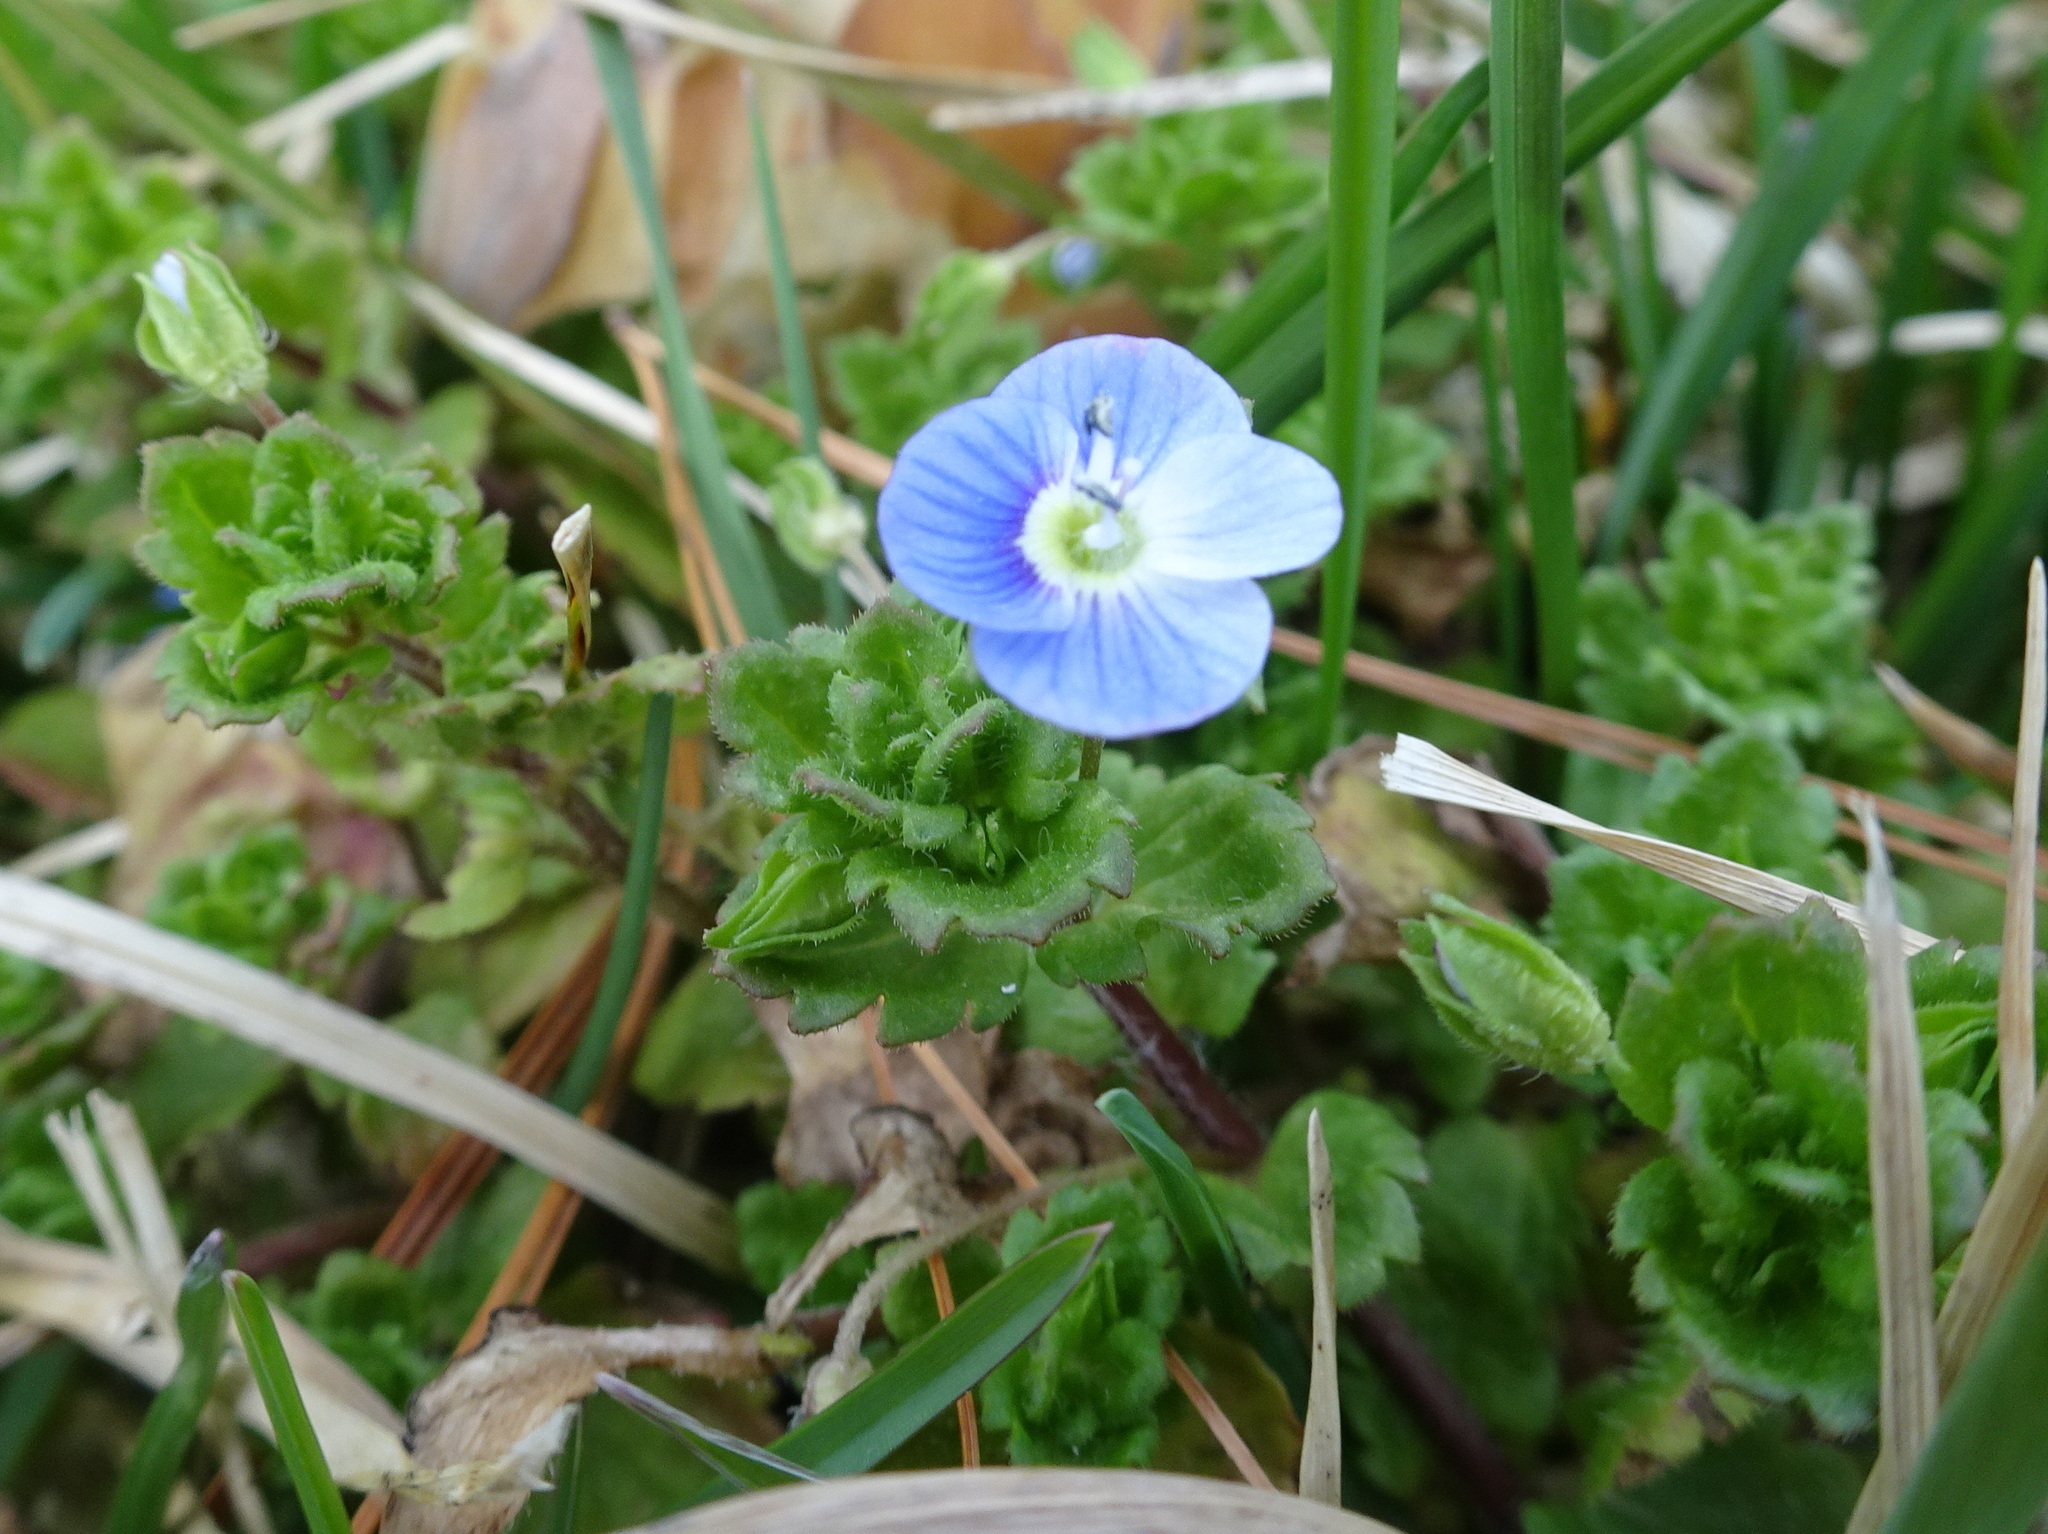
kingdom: Plantae
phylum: Tracheophyta
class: Magnoliopsida
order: Lamiales
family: Plantaginaceae
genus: Veronica
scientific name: Veronica persica
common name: Common field-speedwell
